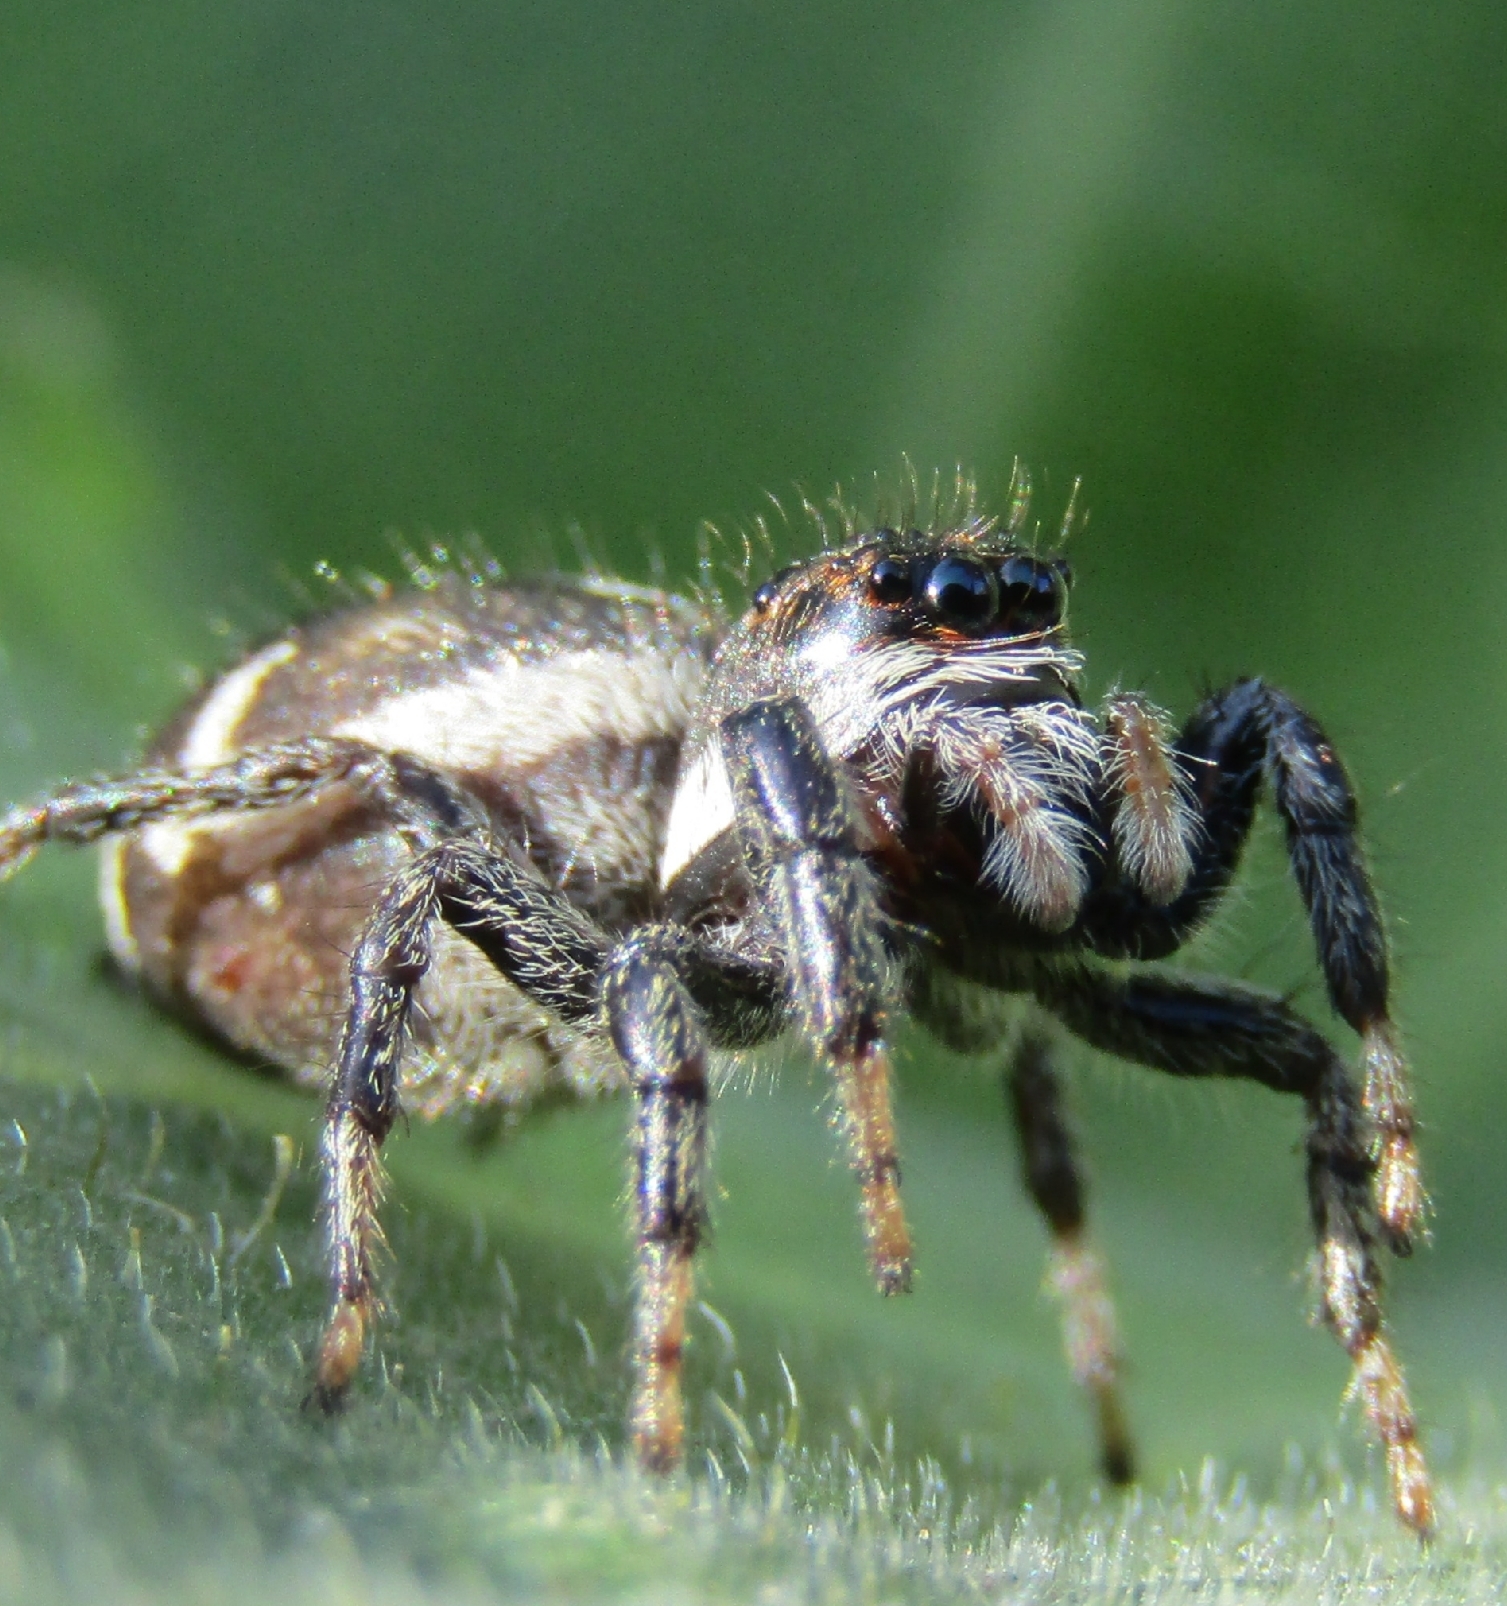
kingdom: Animalia
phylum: Arthropoda
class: Arachnida
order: Araneae
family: Salticidae
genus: Phiale
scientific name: Phiale roburifoliata
